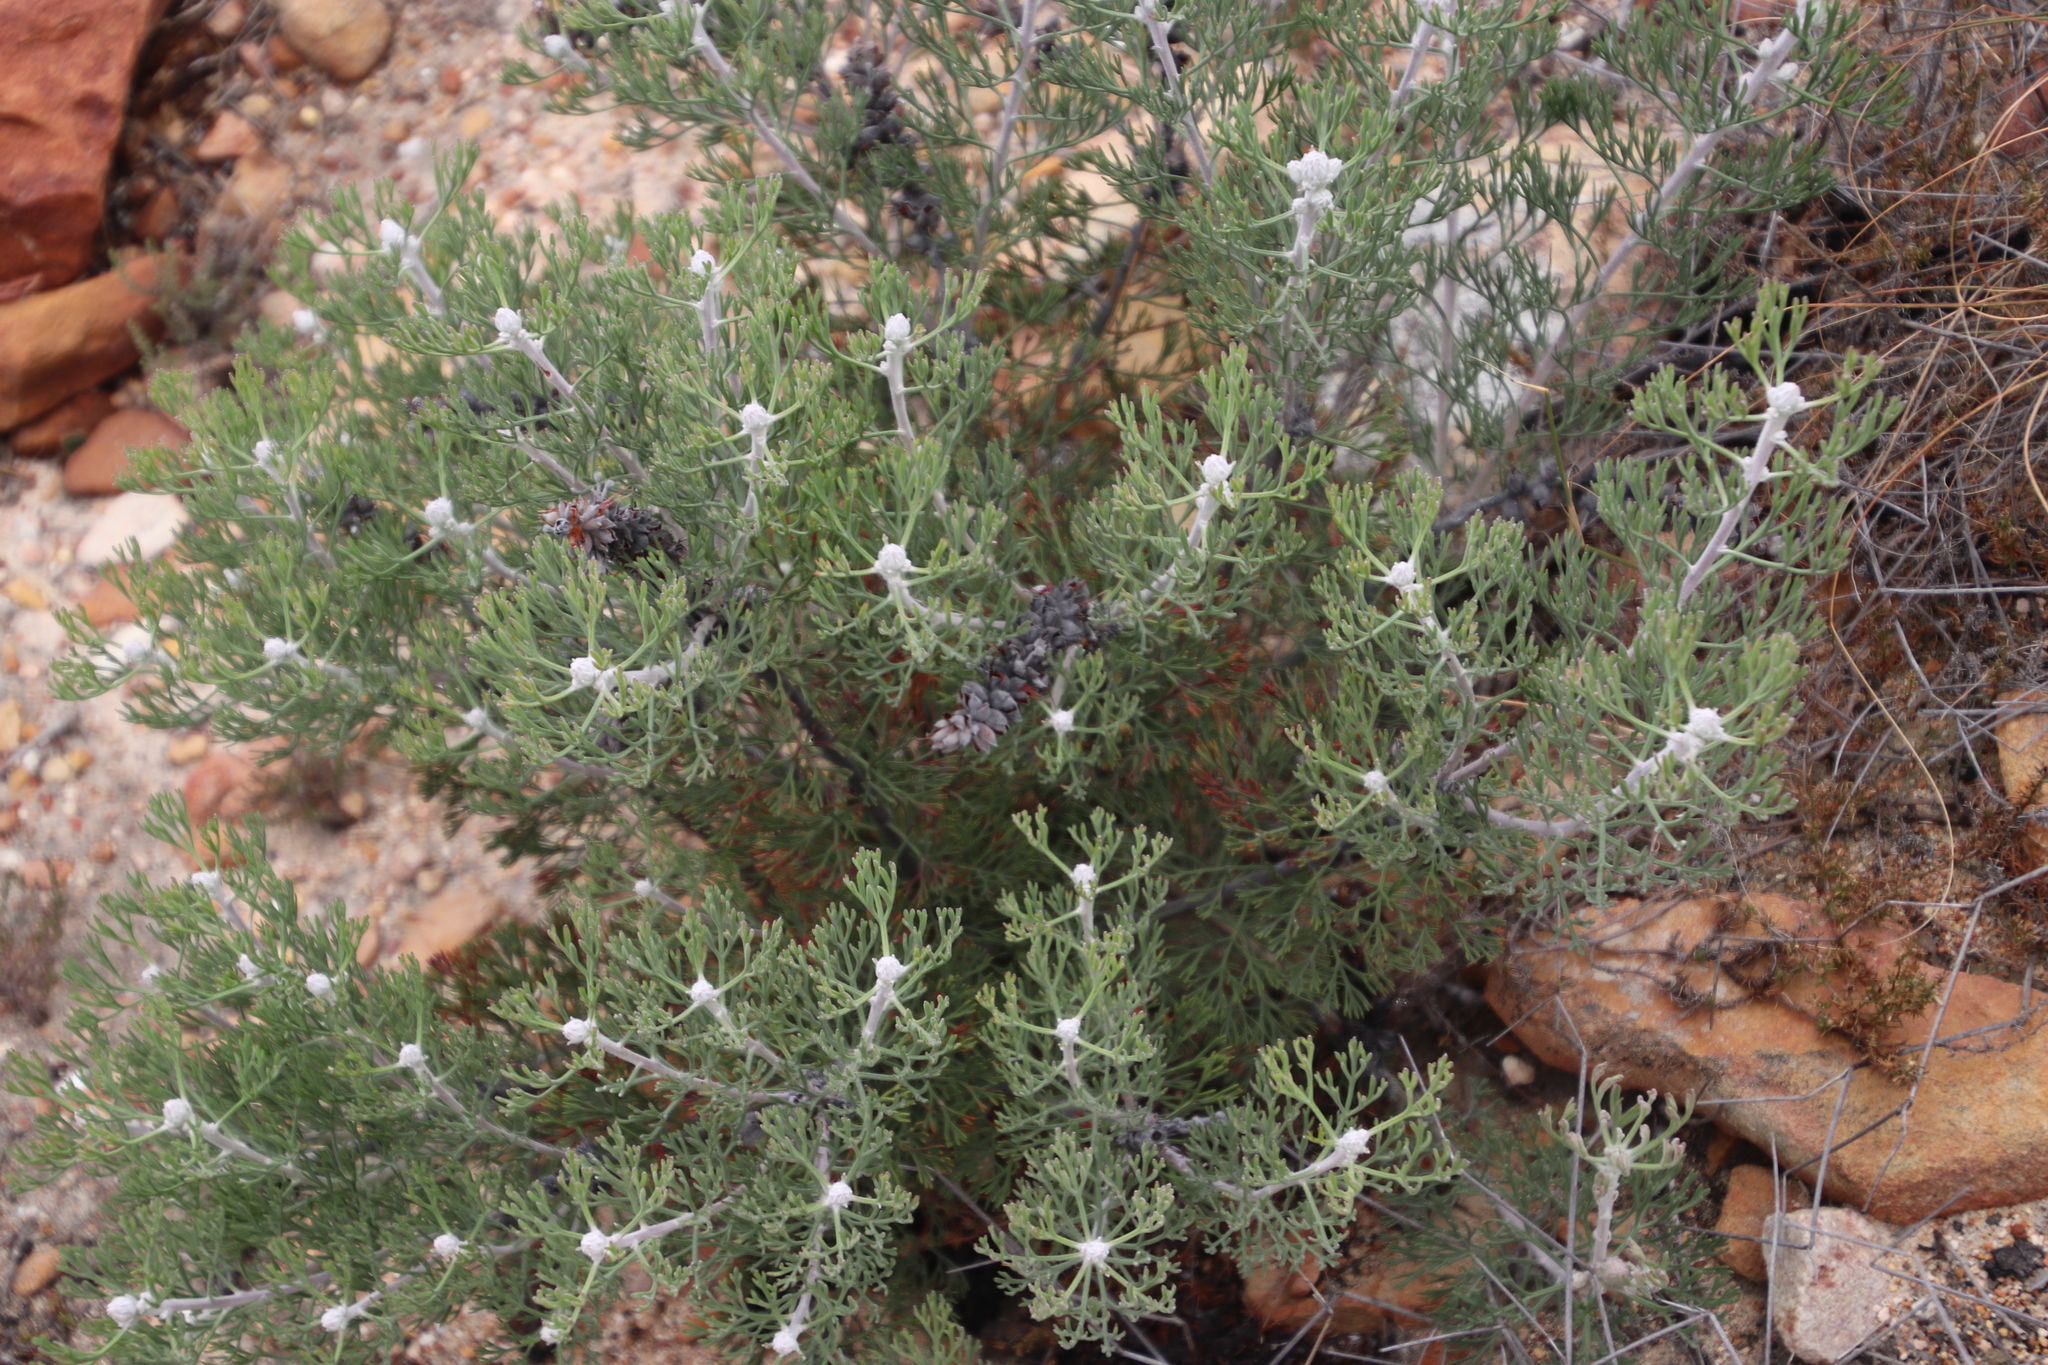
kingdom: Plantae
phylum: Tracheophyta
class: Magnoliopsida
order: Proteales
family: Proteaceae
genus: Paranomus
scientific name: Paranomus bolusii
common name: Overberg sceptre
